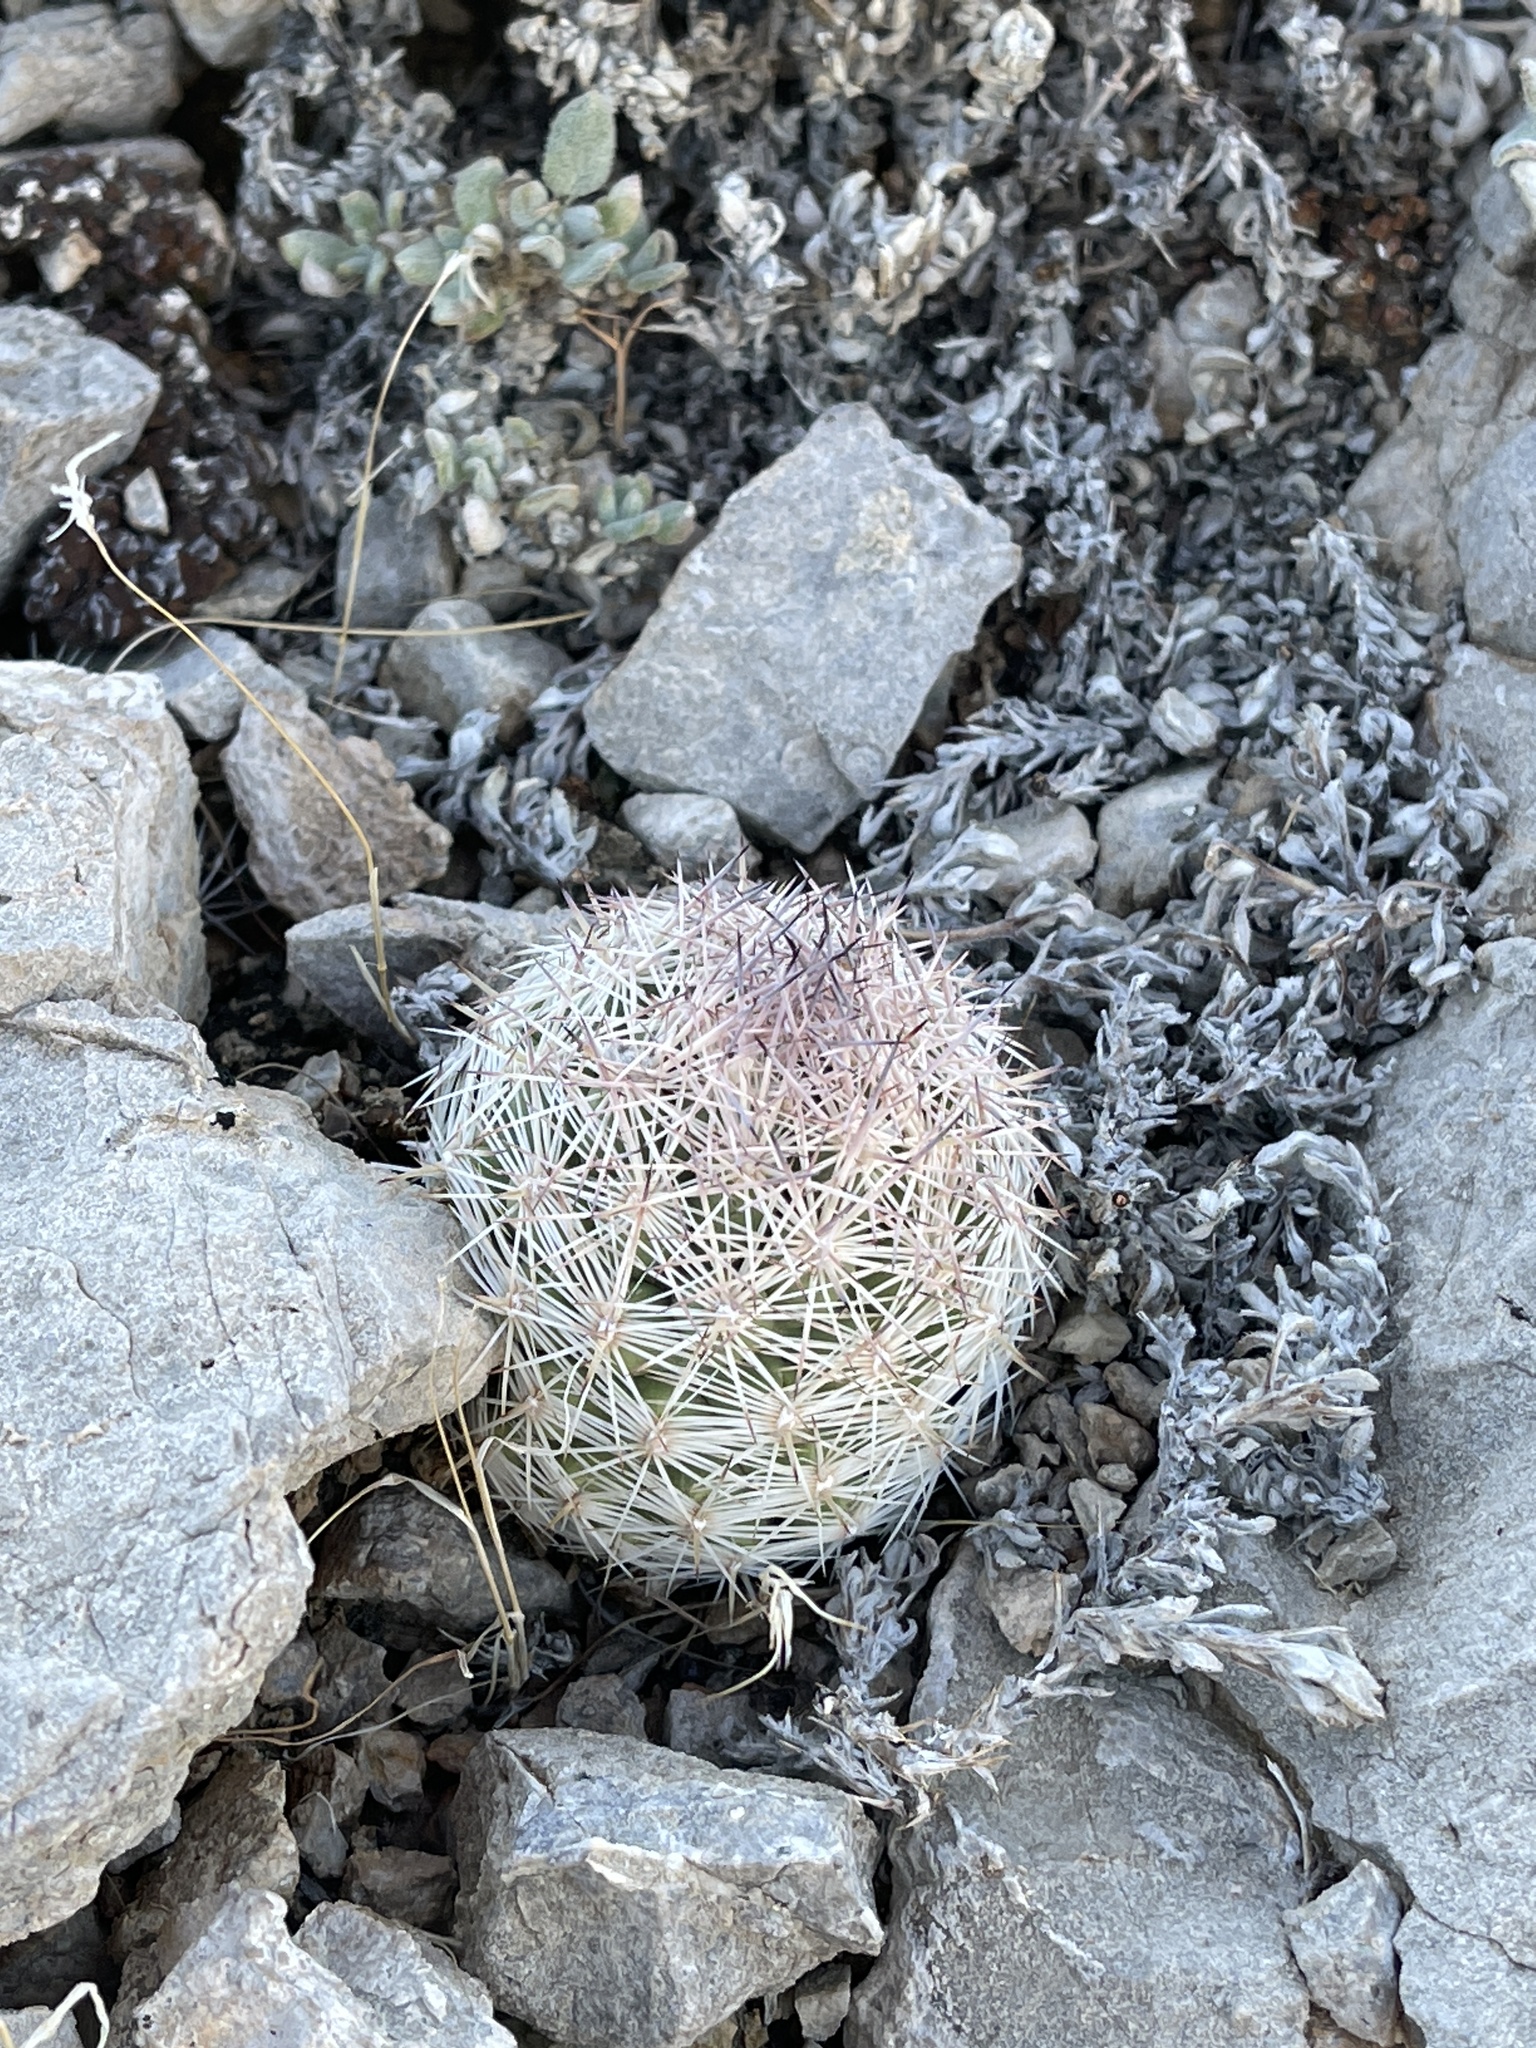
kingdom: Plantae
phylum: Tracheophyta
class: Magnoliopsida
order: Caryophyllales
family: Cactaceae
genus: Pelecyphora
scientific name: Pelecyphora dasyacantha
